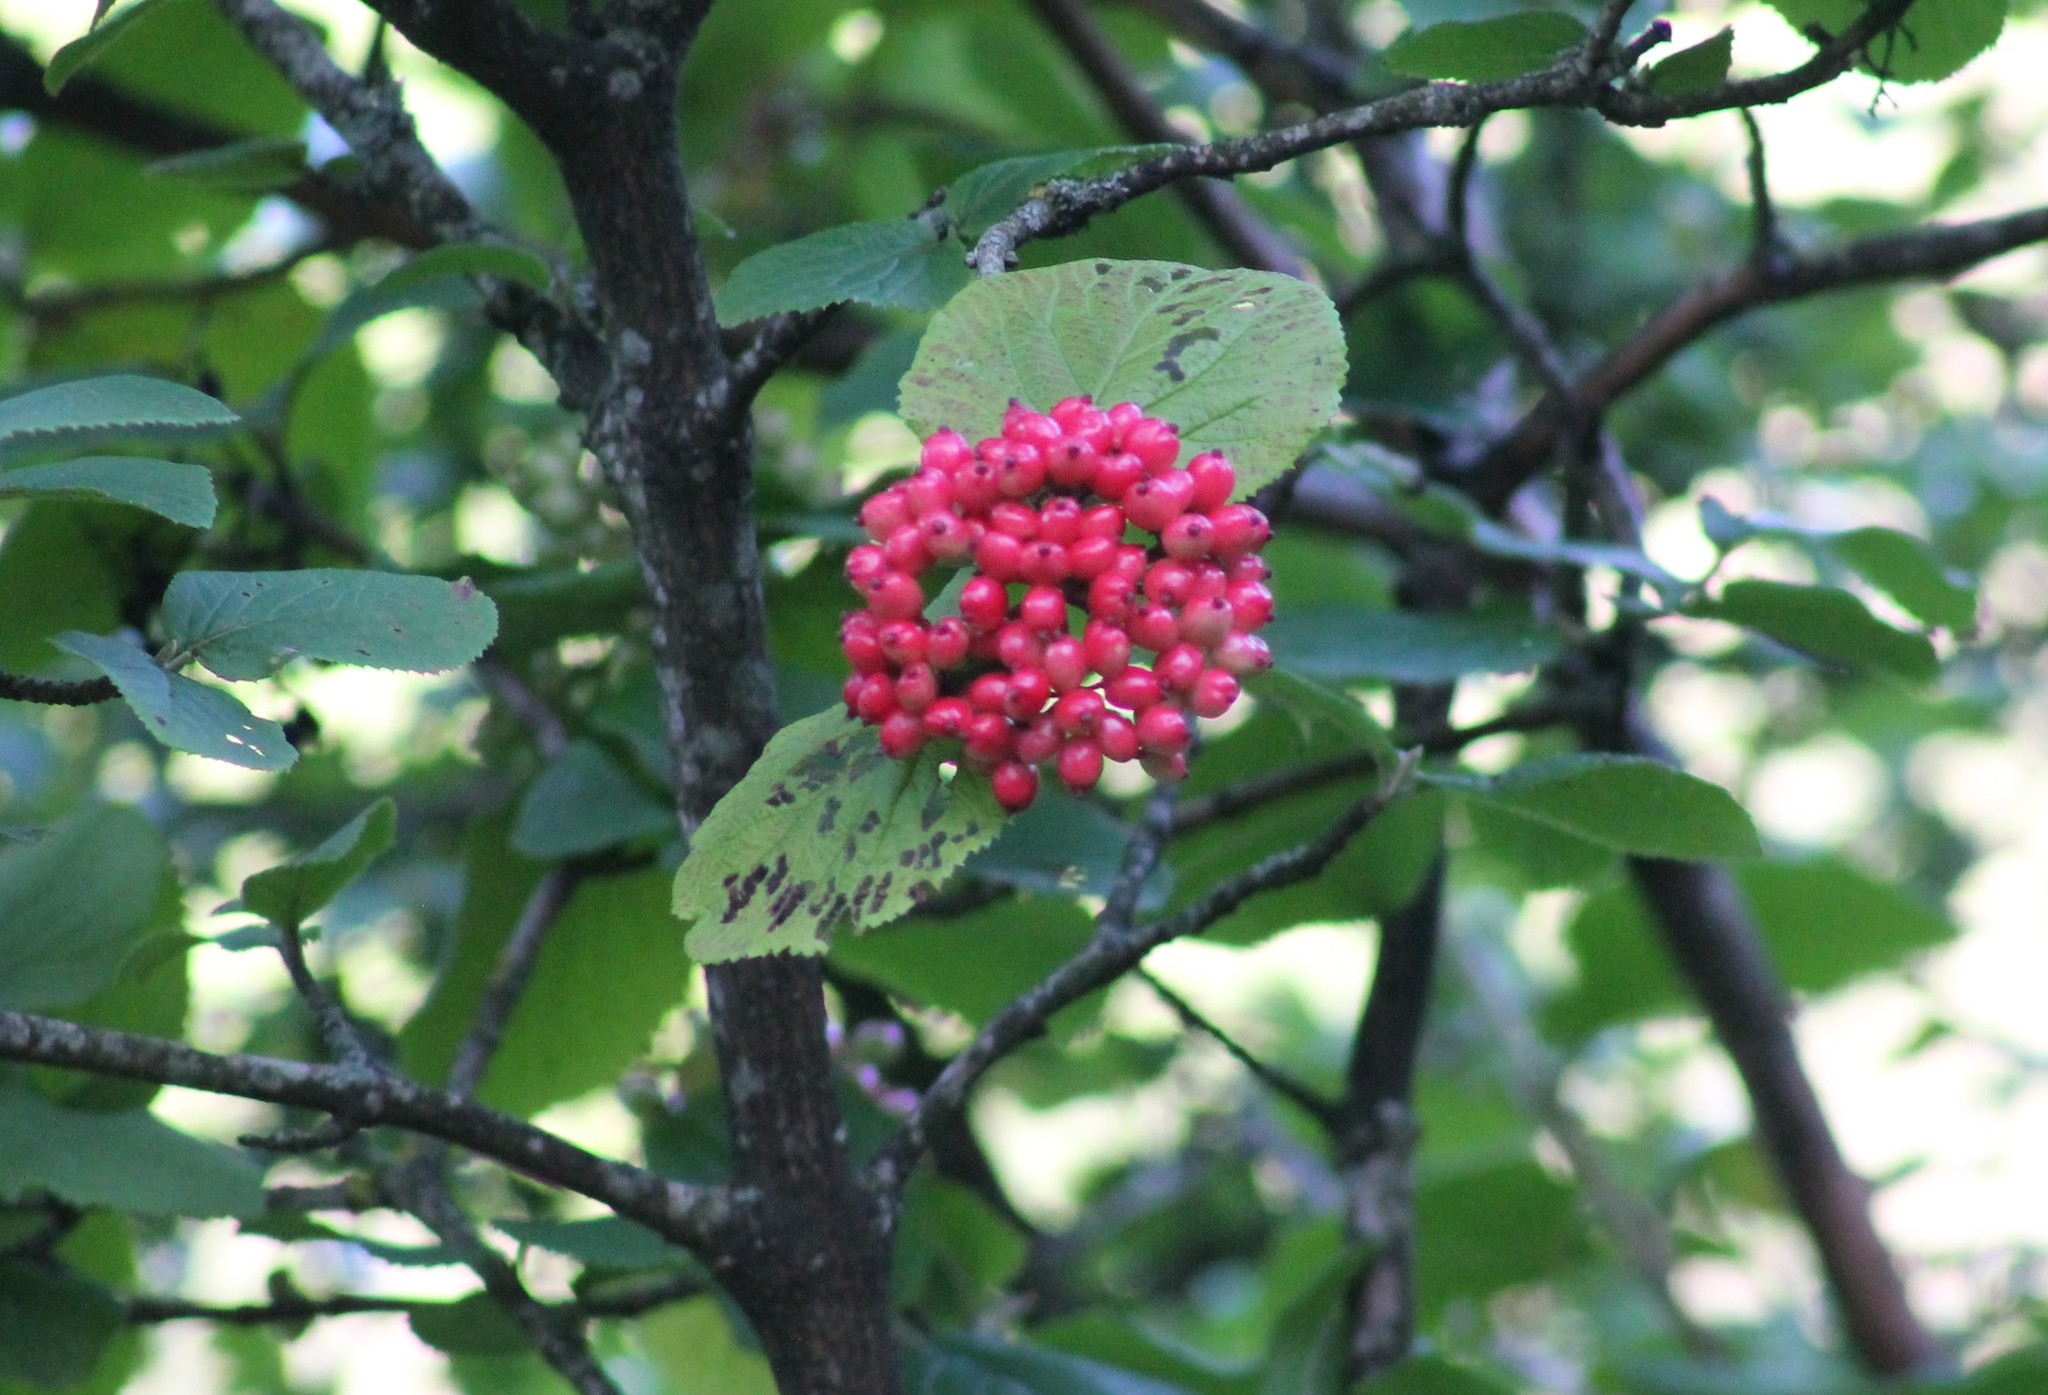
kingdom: Plantae
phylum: Tracheophyta
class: Magnoliopsida
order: Dipsacales
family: Viburnaceae
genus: Viburnum
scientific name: Viburnum lantana
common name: Wayfaring tree
